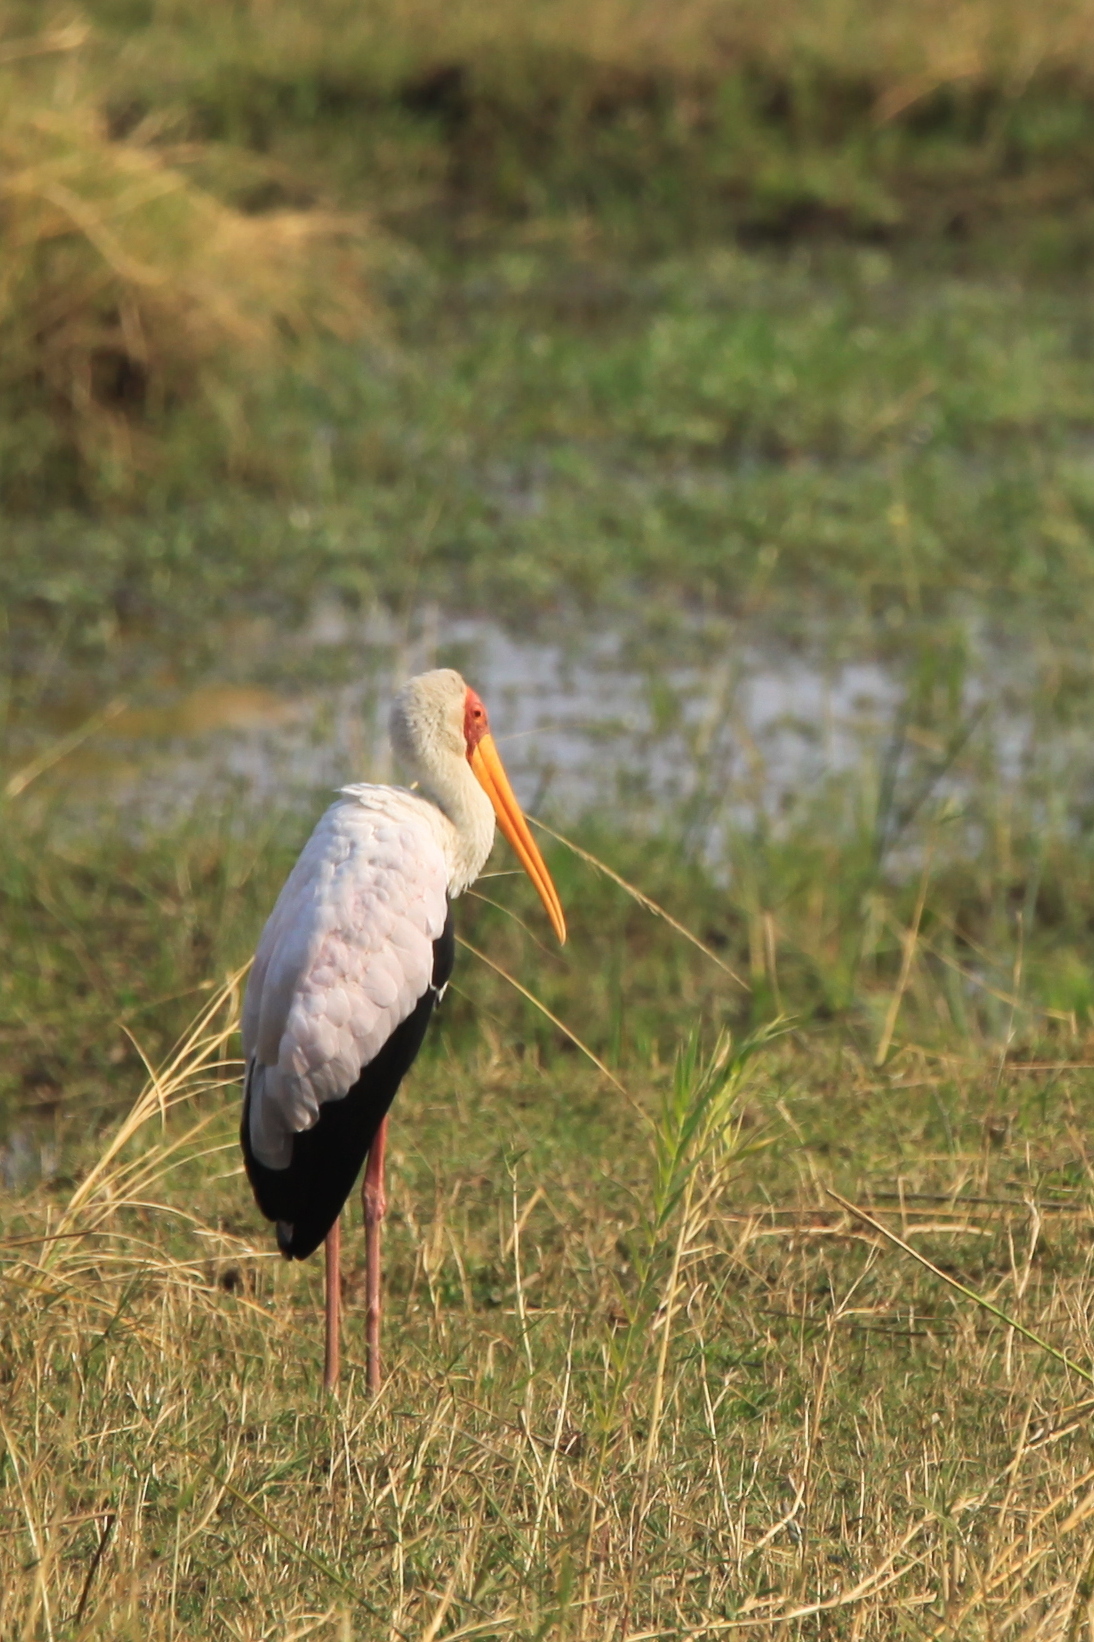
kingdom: Animalia
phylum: Chordata
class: Aves
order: Ciconiiformes
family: Ciconiidae
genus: Mycteria
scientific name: Mycteria ibis
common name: Yellow-billed stork
